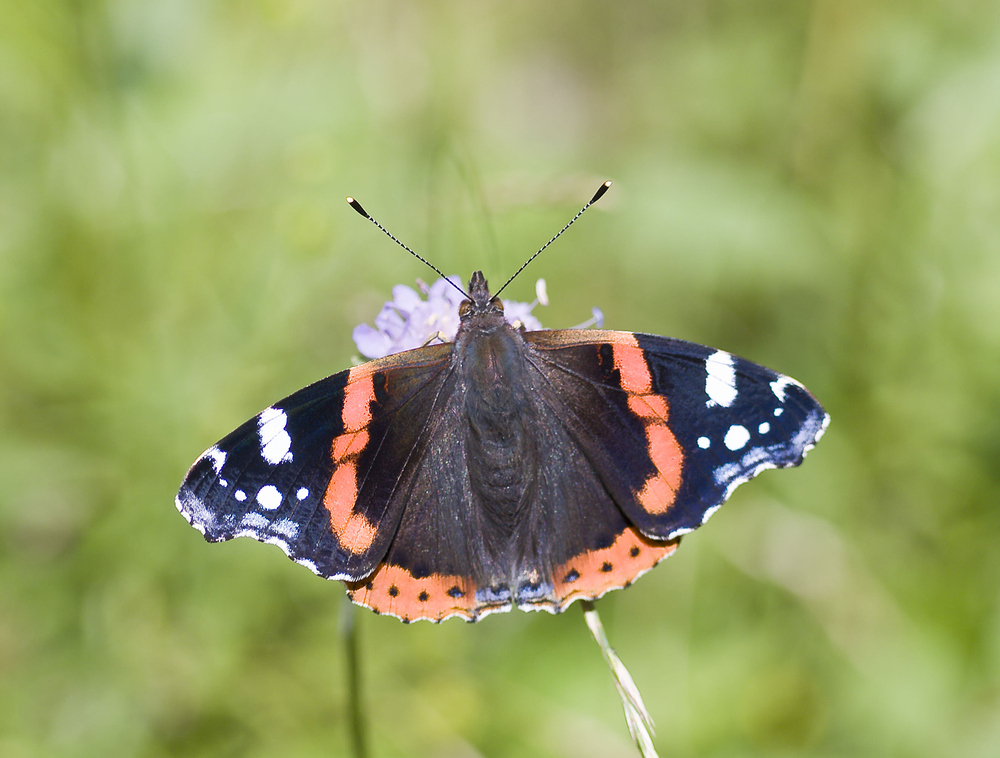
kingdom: Animalia
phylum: Arthropoda
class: Insecta
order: Lepidoptera
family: Nymphalidae
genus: Vanessa
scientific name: Vanessa atalanta
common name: Red admiral
